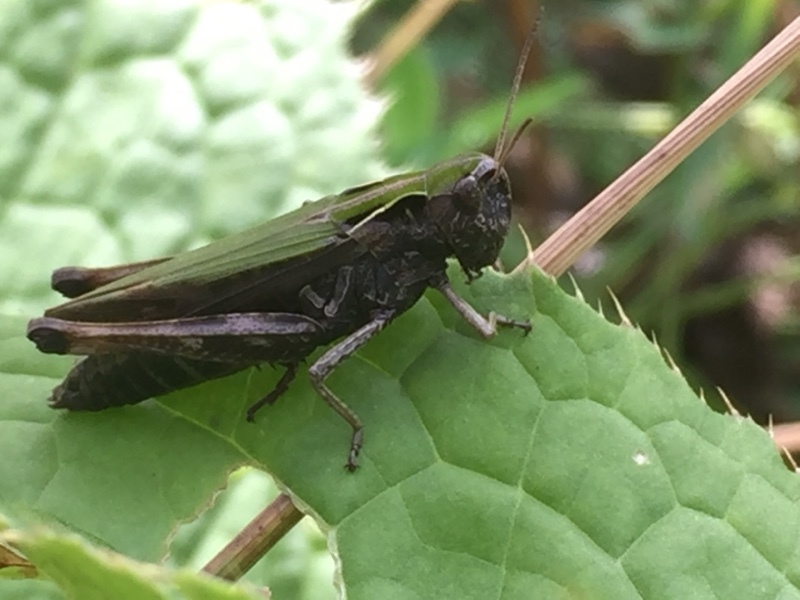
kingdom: Animalia
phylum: Arthropoda
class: Insecta
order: Orthoptera
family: Acrididae
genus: Omocestus
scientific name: Omocestus rufipes
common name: Woodland grasshopper
